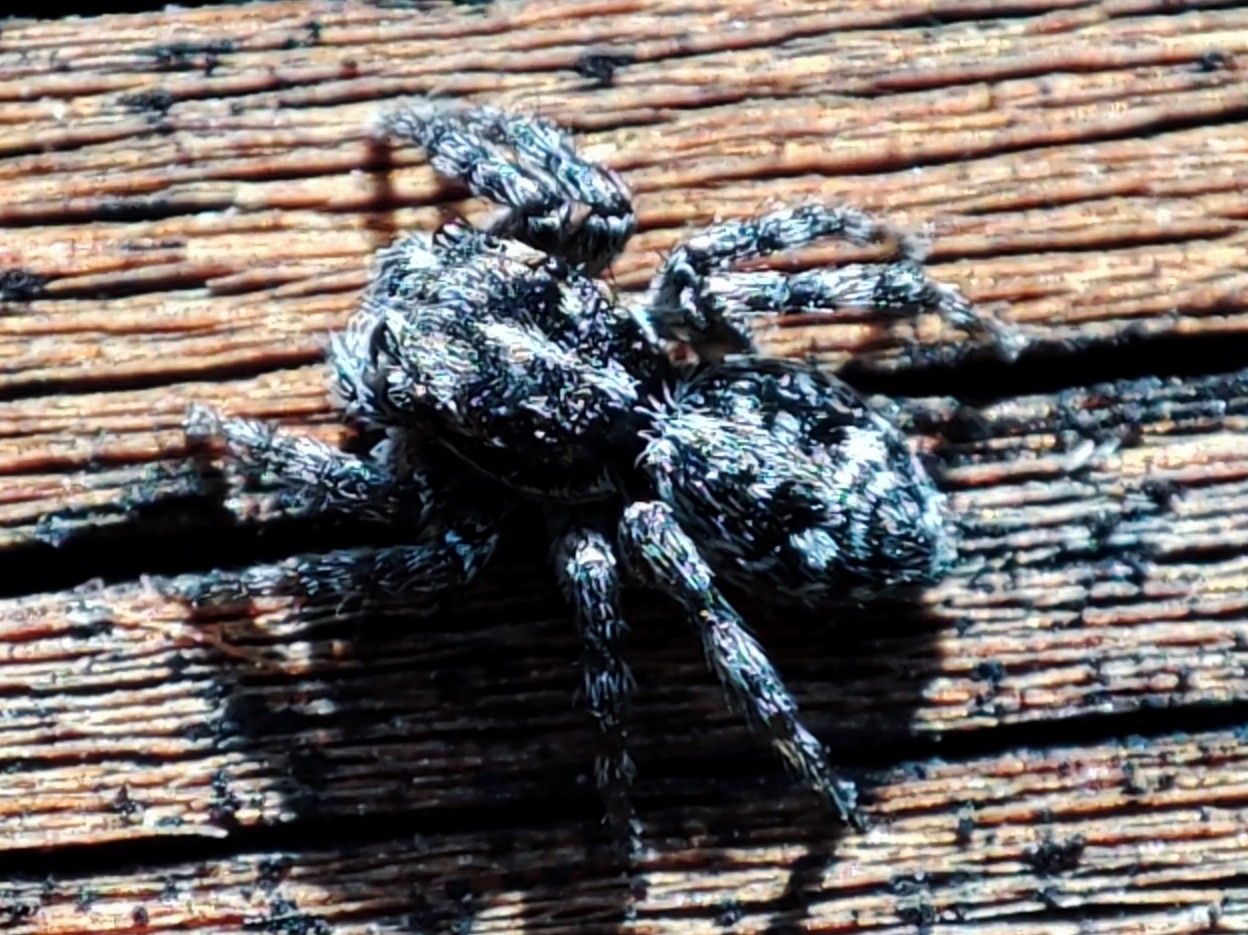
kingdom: Animalia
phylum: Arthropoda
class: Arachnida
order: Araneae
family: Salticidae
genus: Attulus
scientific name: Attulus terebratus
